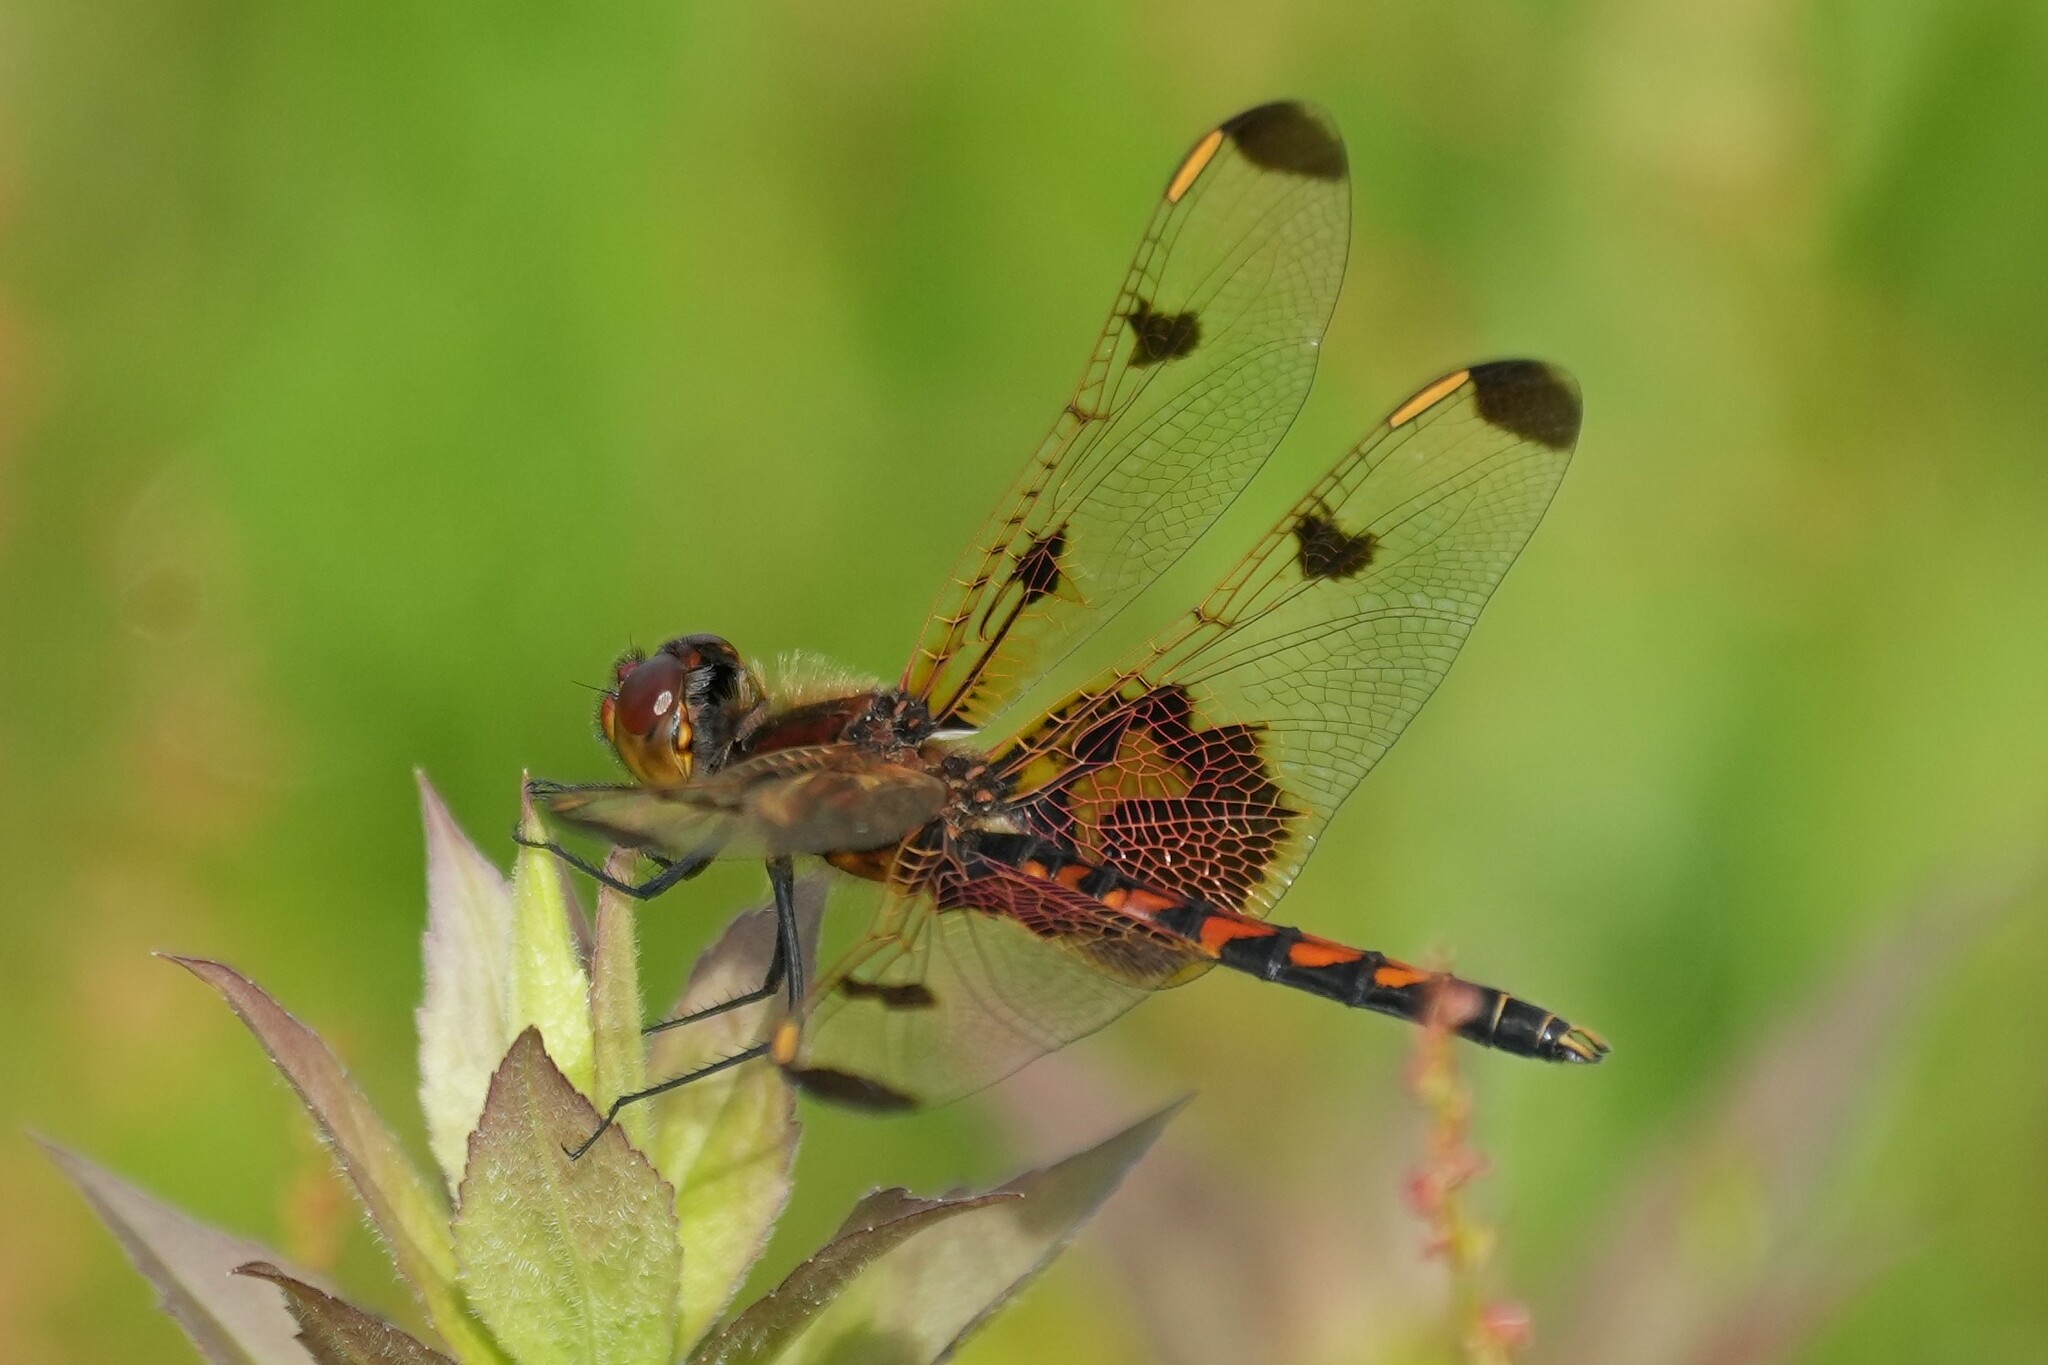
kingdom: Animalia
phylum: Arthropoda
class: Insecta
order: Odonata
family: Libellulidae
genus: Celithemis
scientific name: Celithemis elisa
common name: Calico pennant
